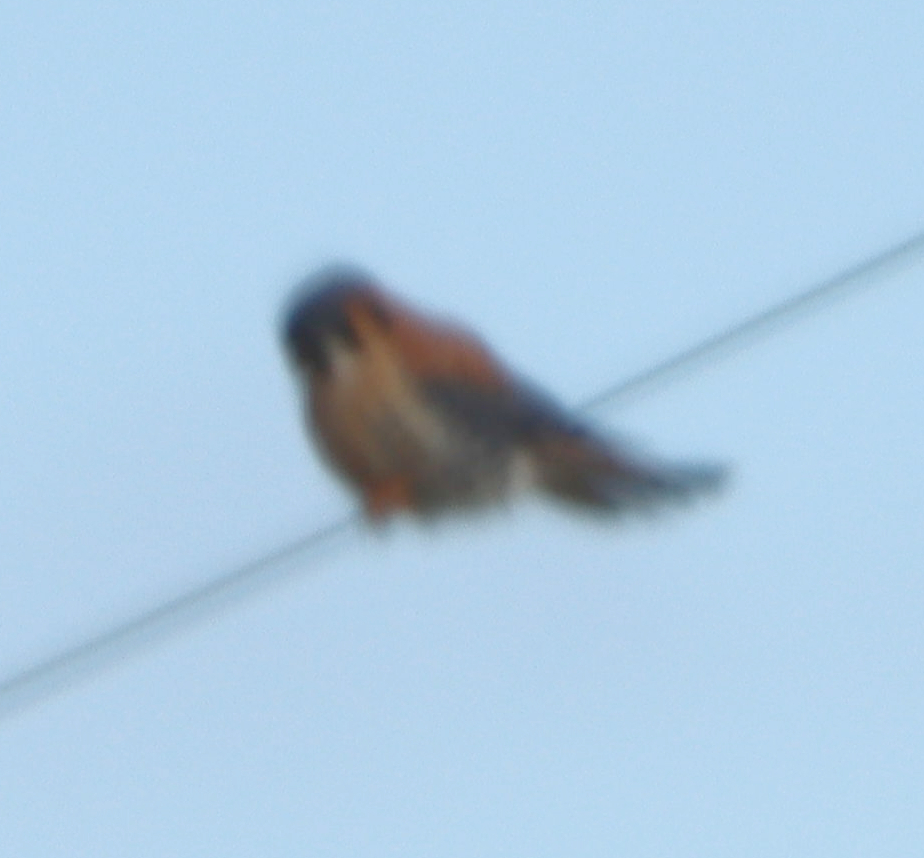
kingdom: Animalia
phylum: Chordata
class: Aves
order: Falconiformes
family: Falconidae
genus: Falco
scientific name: Falco sparverius
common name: American kestrel
